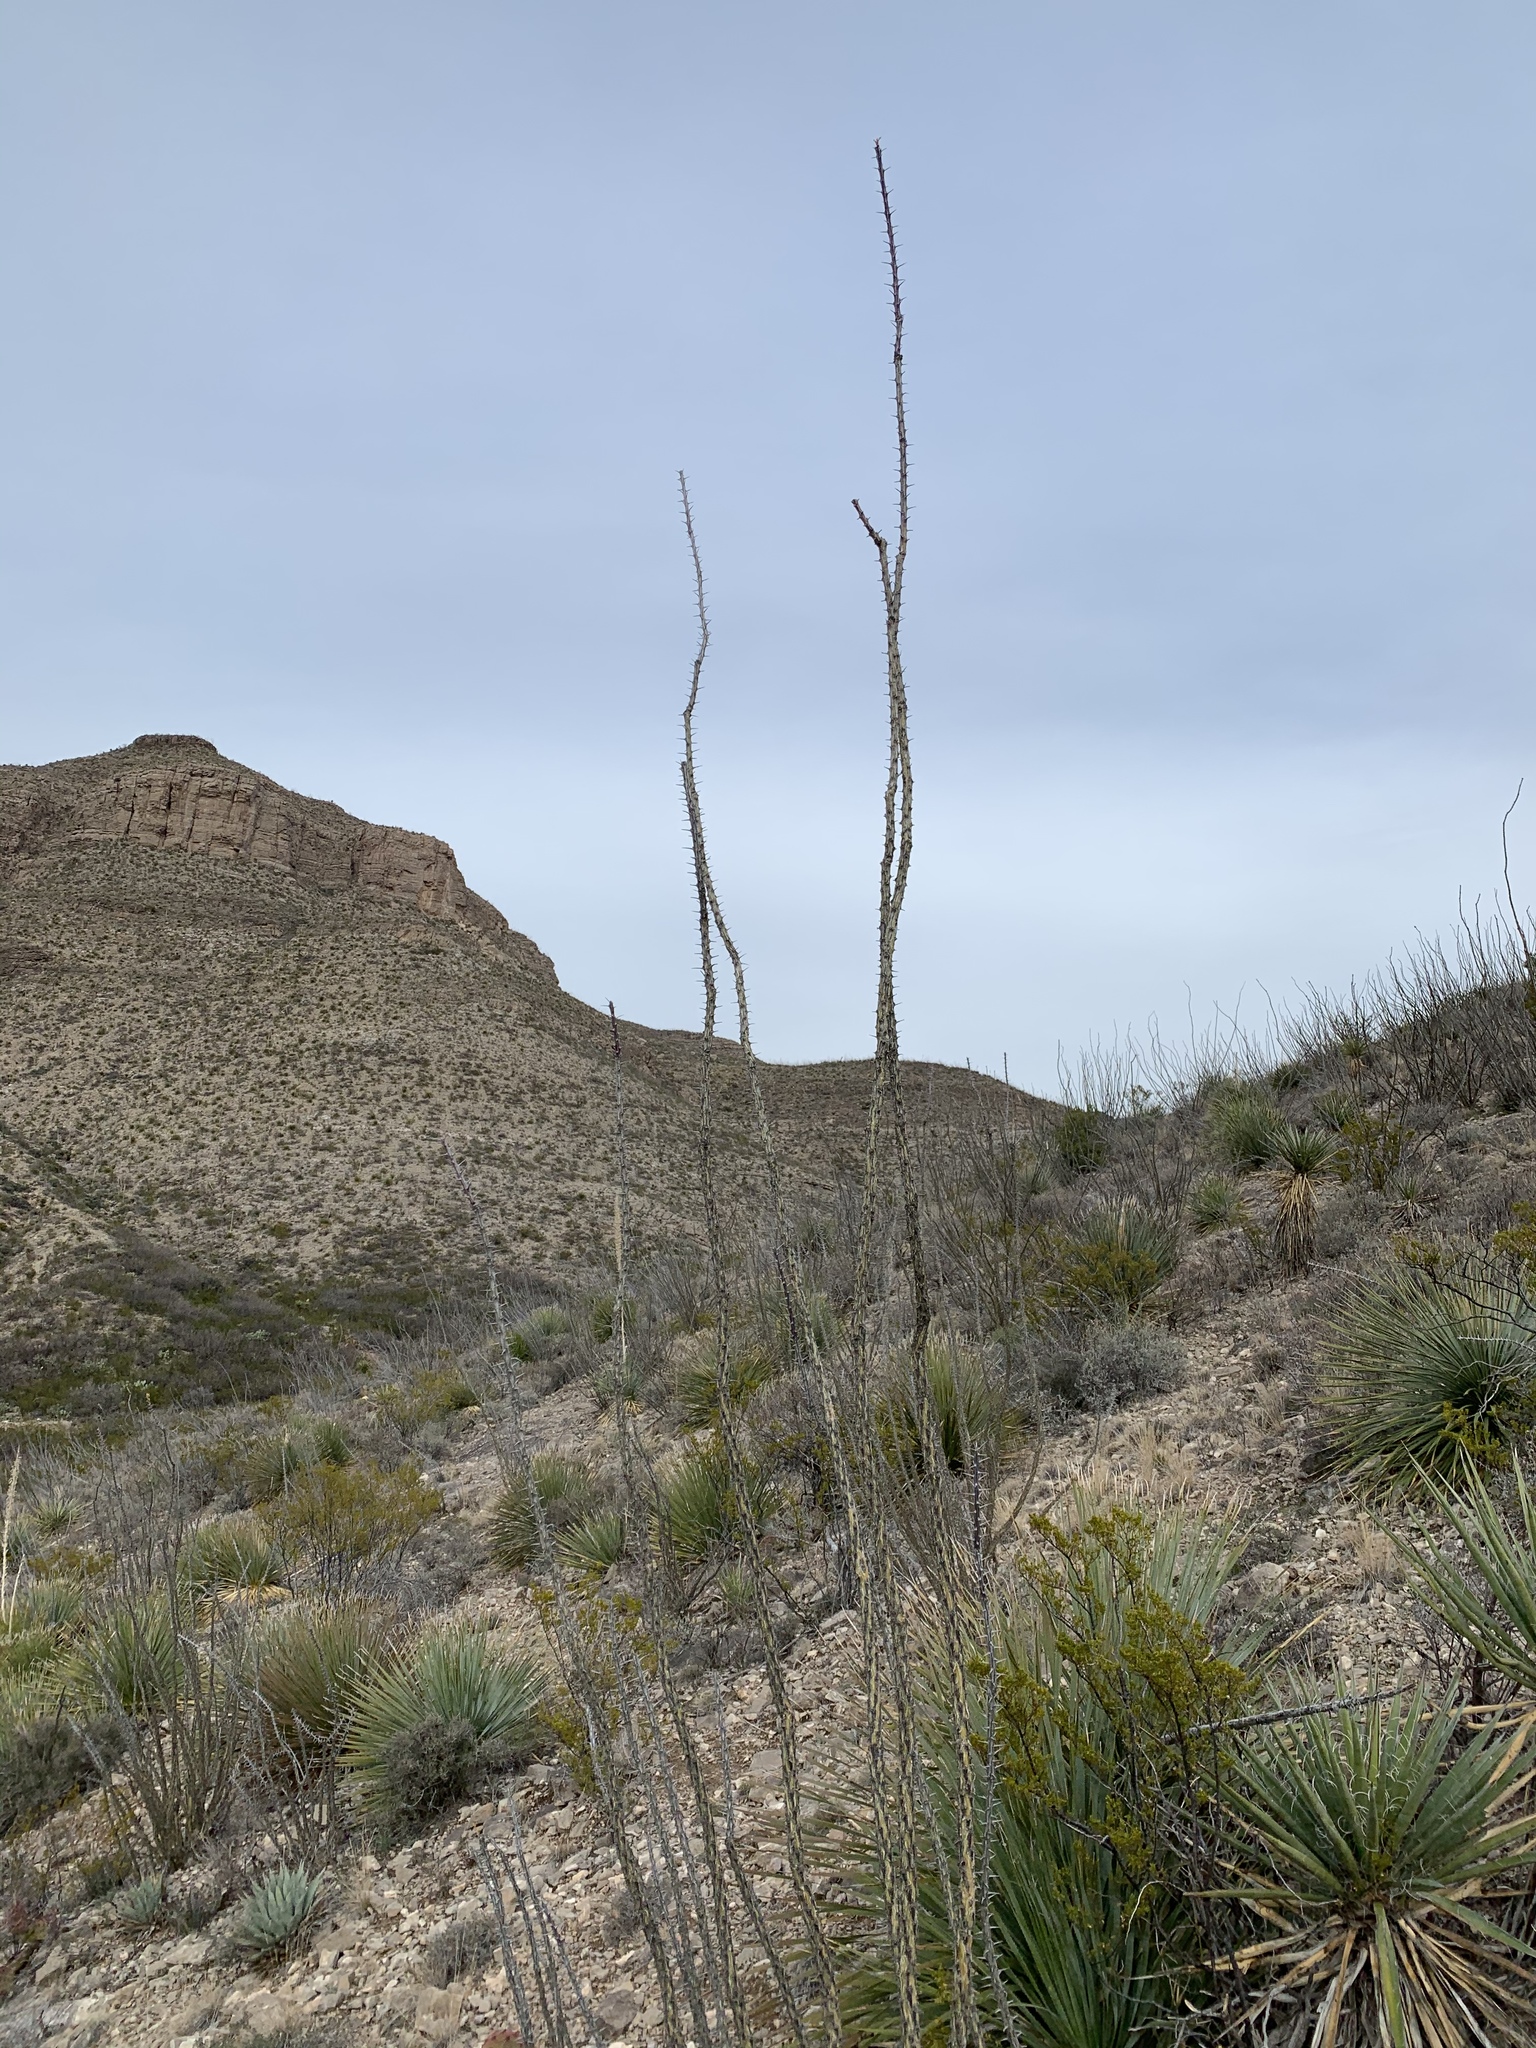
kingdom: Plantae
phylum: Tracheophyta
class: Magnoliopsida
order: Ericales
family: Fouquieriaceae
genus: Fouquieria
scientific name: Fouquieria splendens
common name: Vine-cactus
